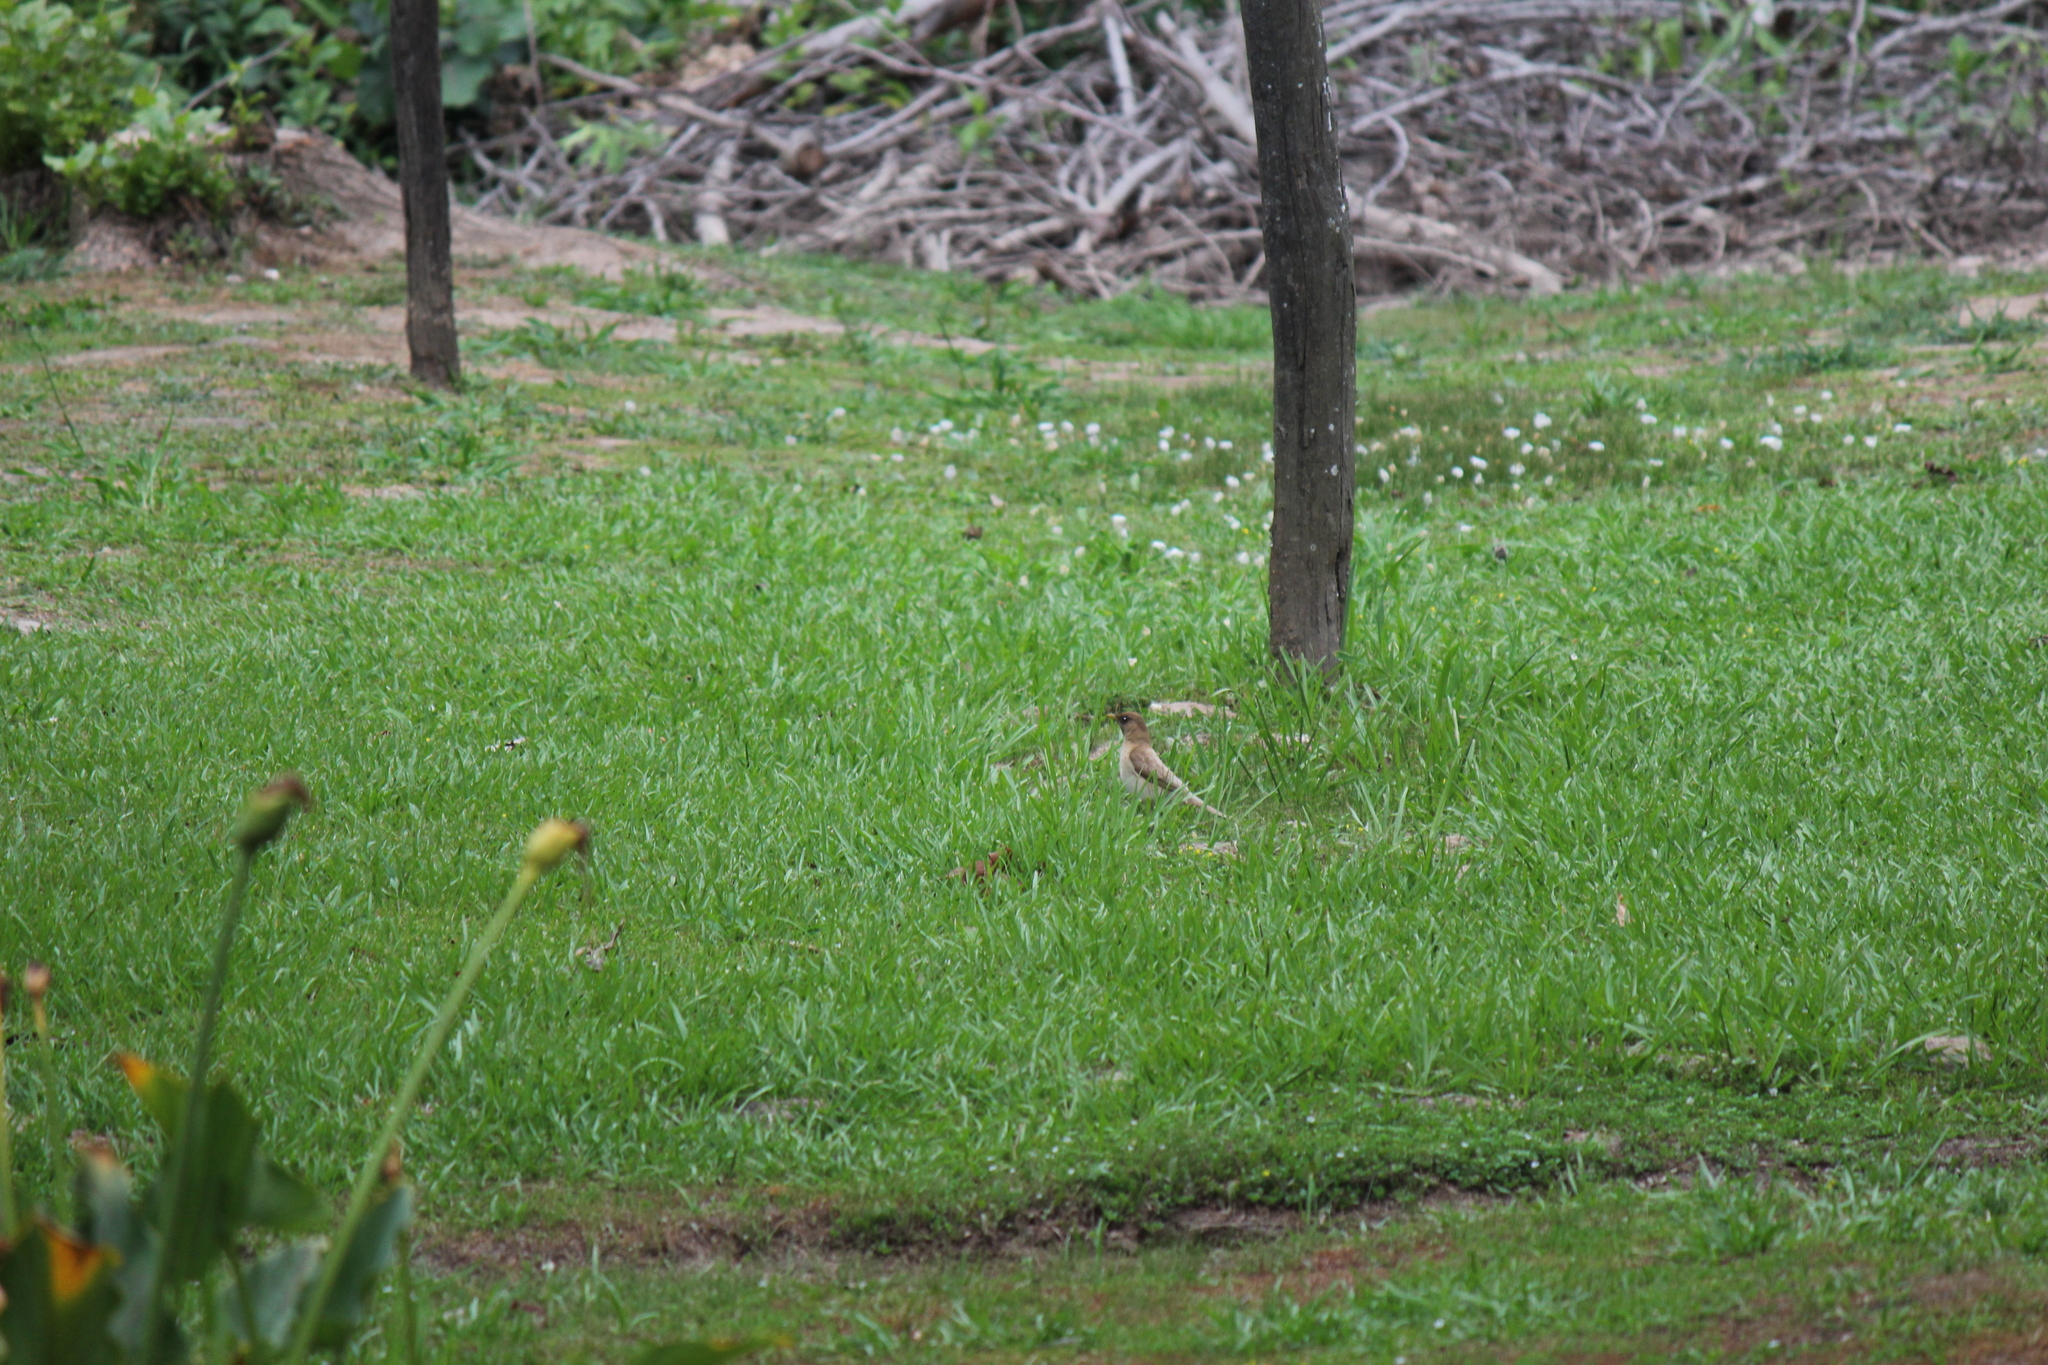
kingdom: Animalia
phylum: Chordata
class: Aves
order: Passeriformes
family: Turdidae
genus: Turdus
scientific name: Turdus amaurochalinus
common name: Creamy-bellied thrush
